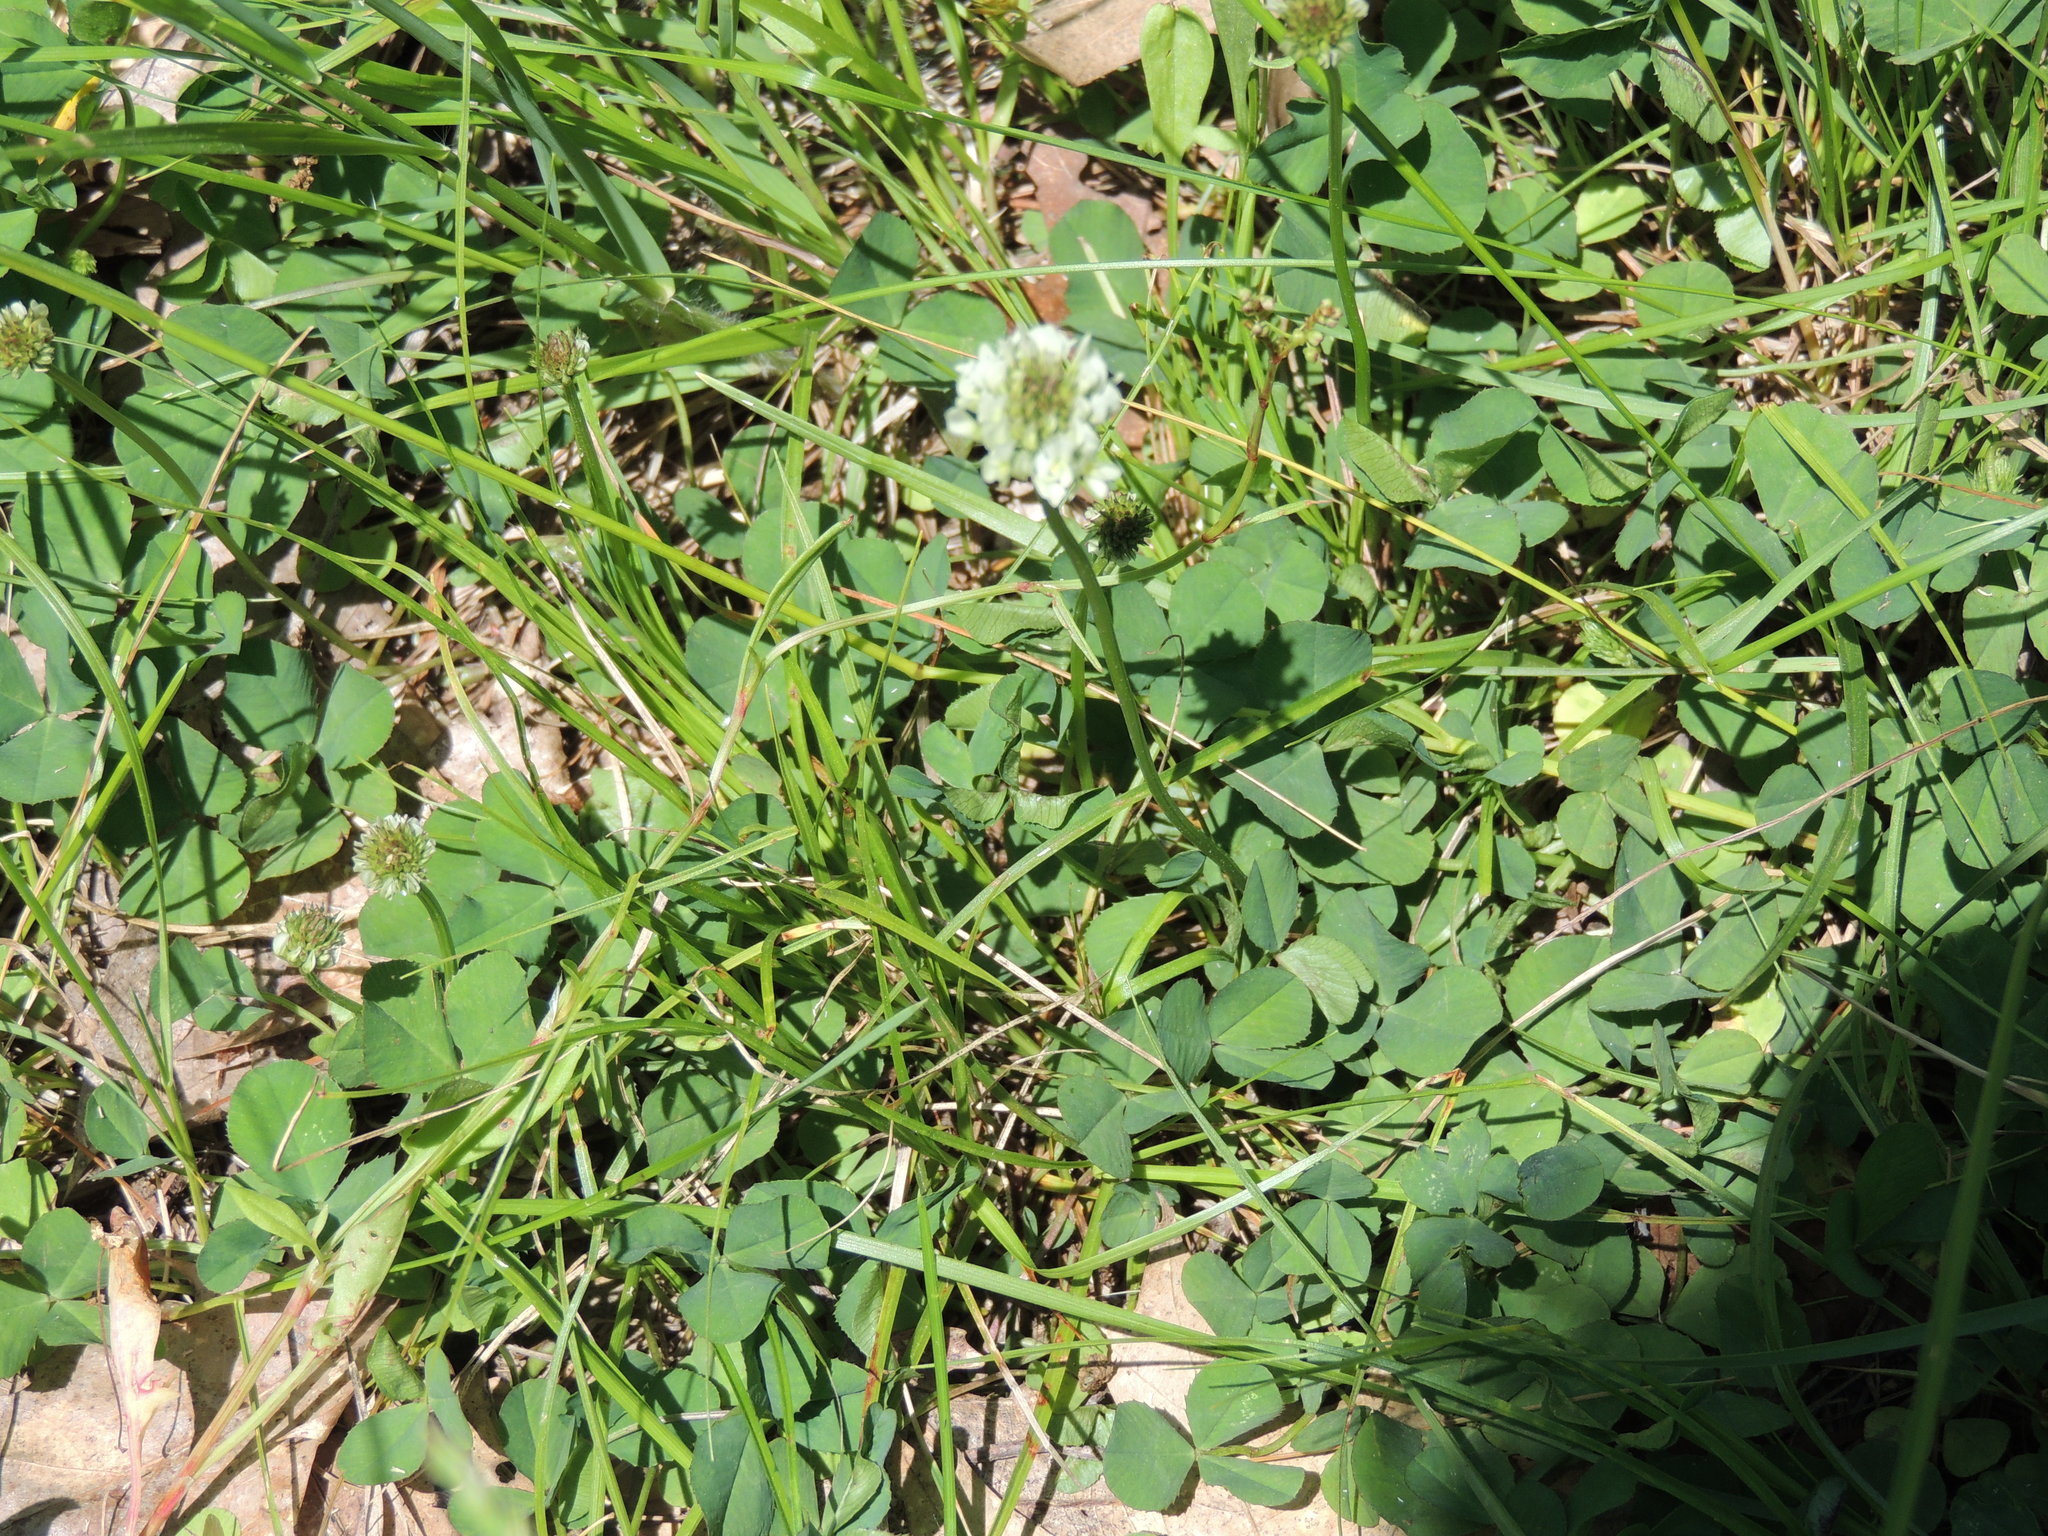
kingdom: Plantae
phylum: Tracheophyta
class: Magnoliopsida
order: Fabales
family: Fabaceae
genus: Trifolium
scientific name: Trifolium repens
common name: White clover
